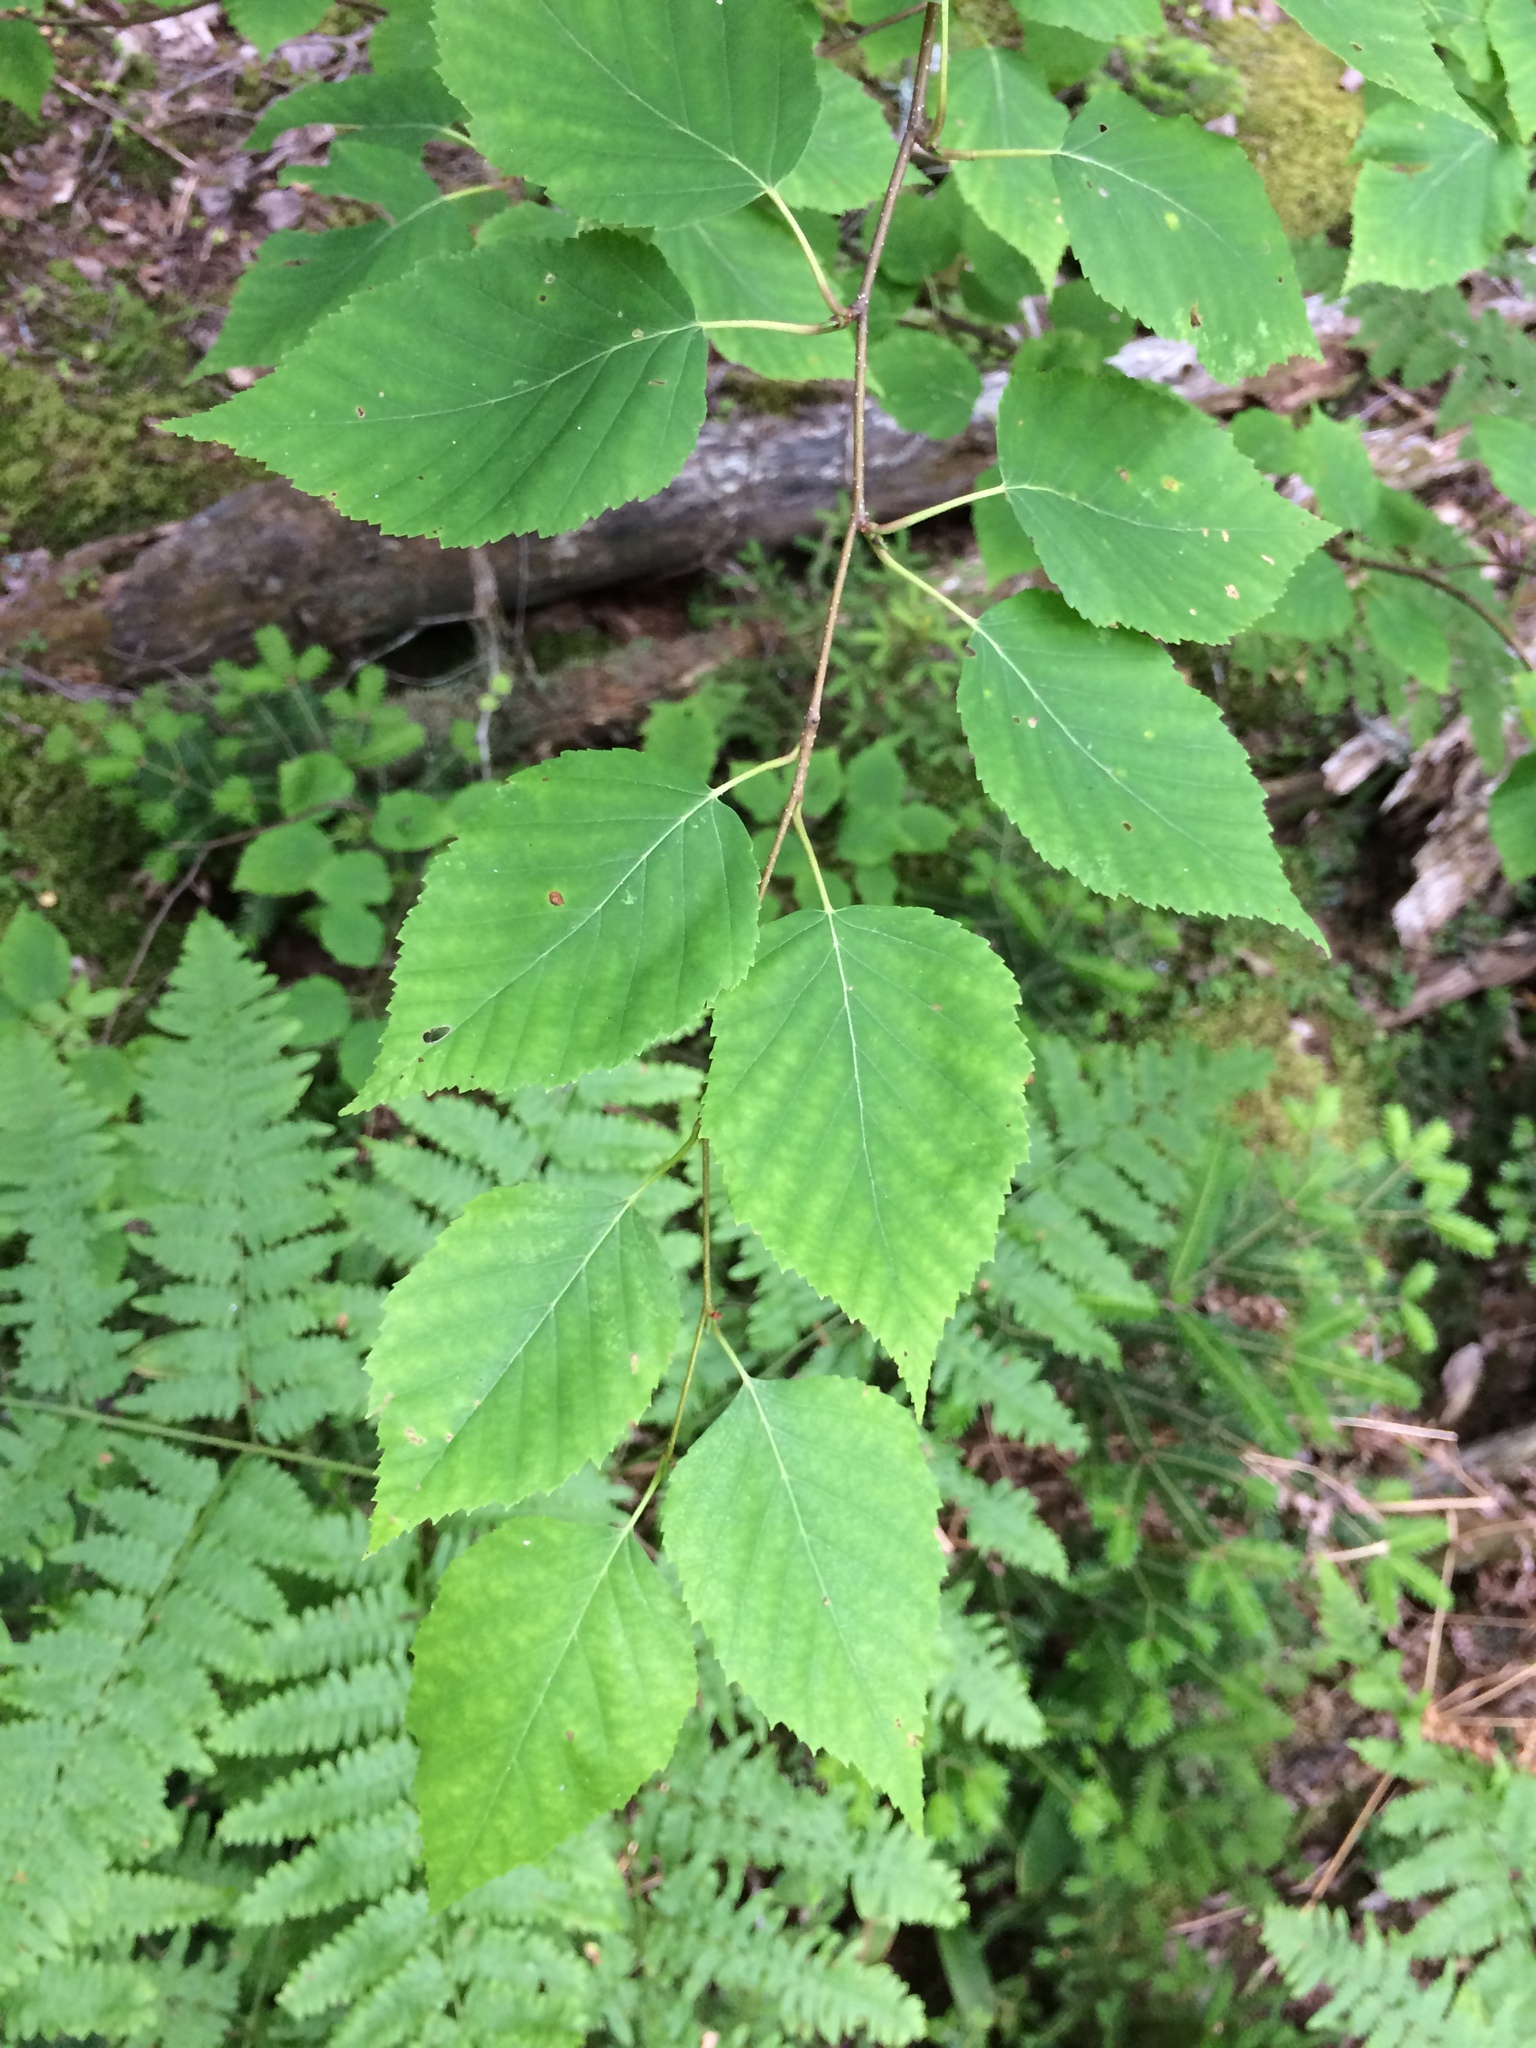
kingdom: Plantae
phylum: Tracheophyta
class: Magnoliopsida
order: Fagales
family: Betulaceae
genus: Betula
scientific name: Betula papyrifera
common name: Paper birch
